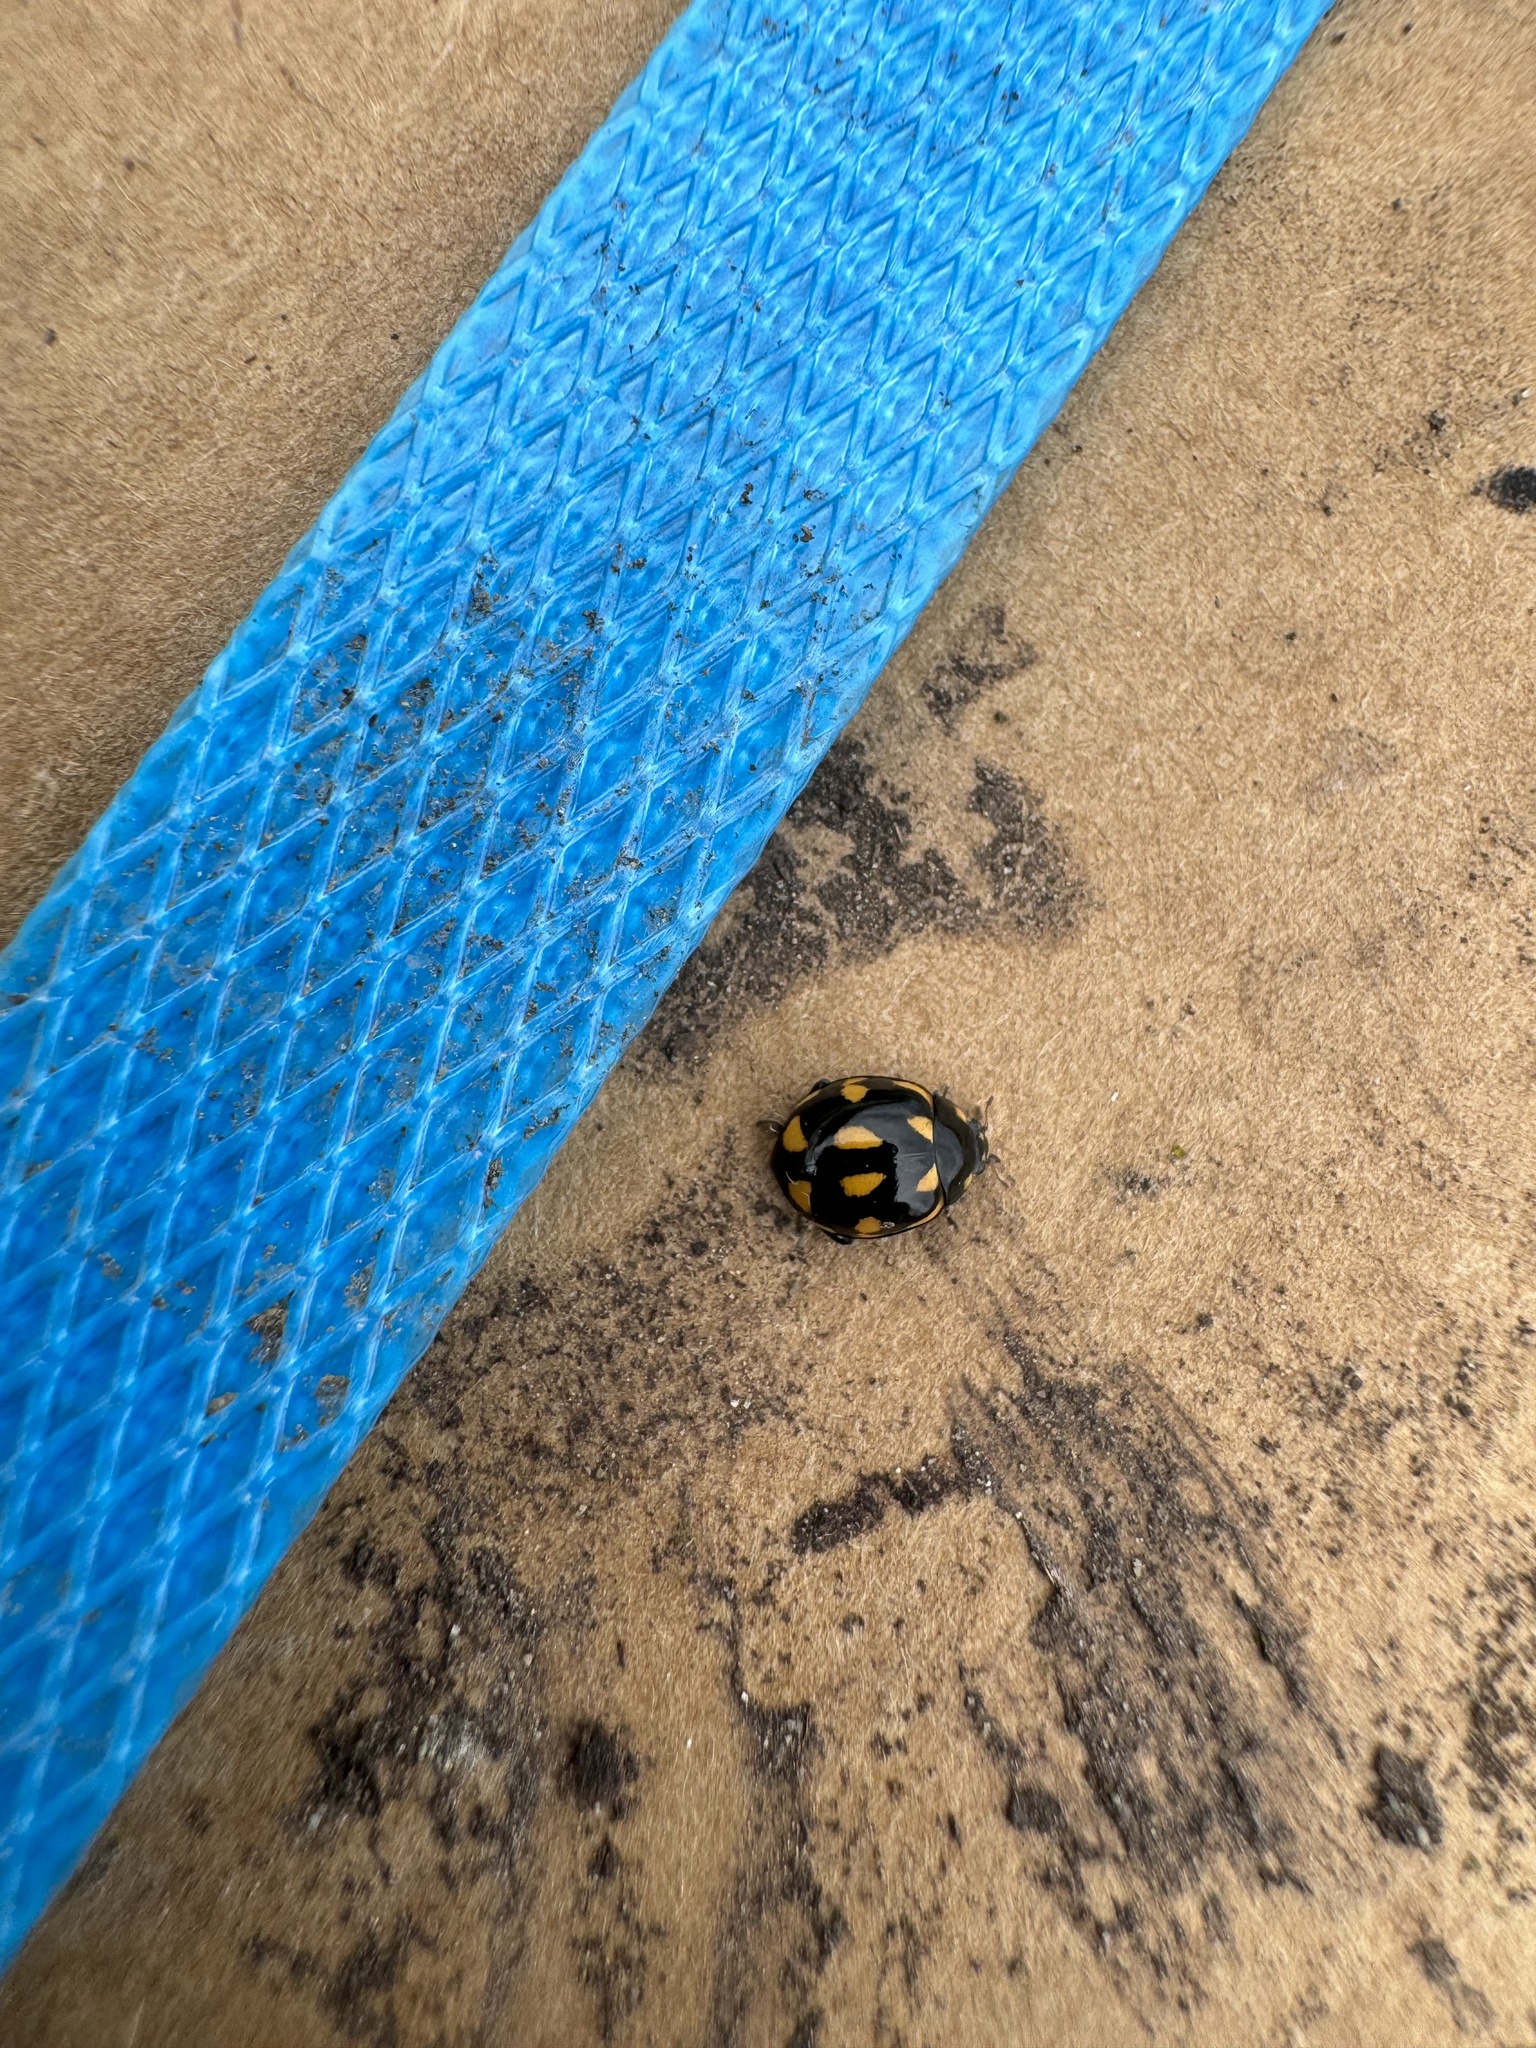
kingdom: Animalia
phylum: Arthropoda
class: Insecta
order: Coleoptera
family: Coccinellidae
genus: Coccinella
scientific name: Coccinella leonina
